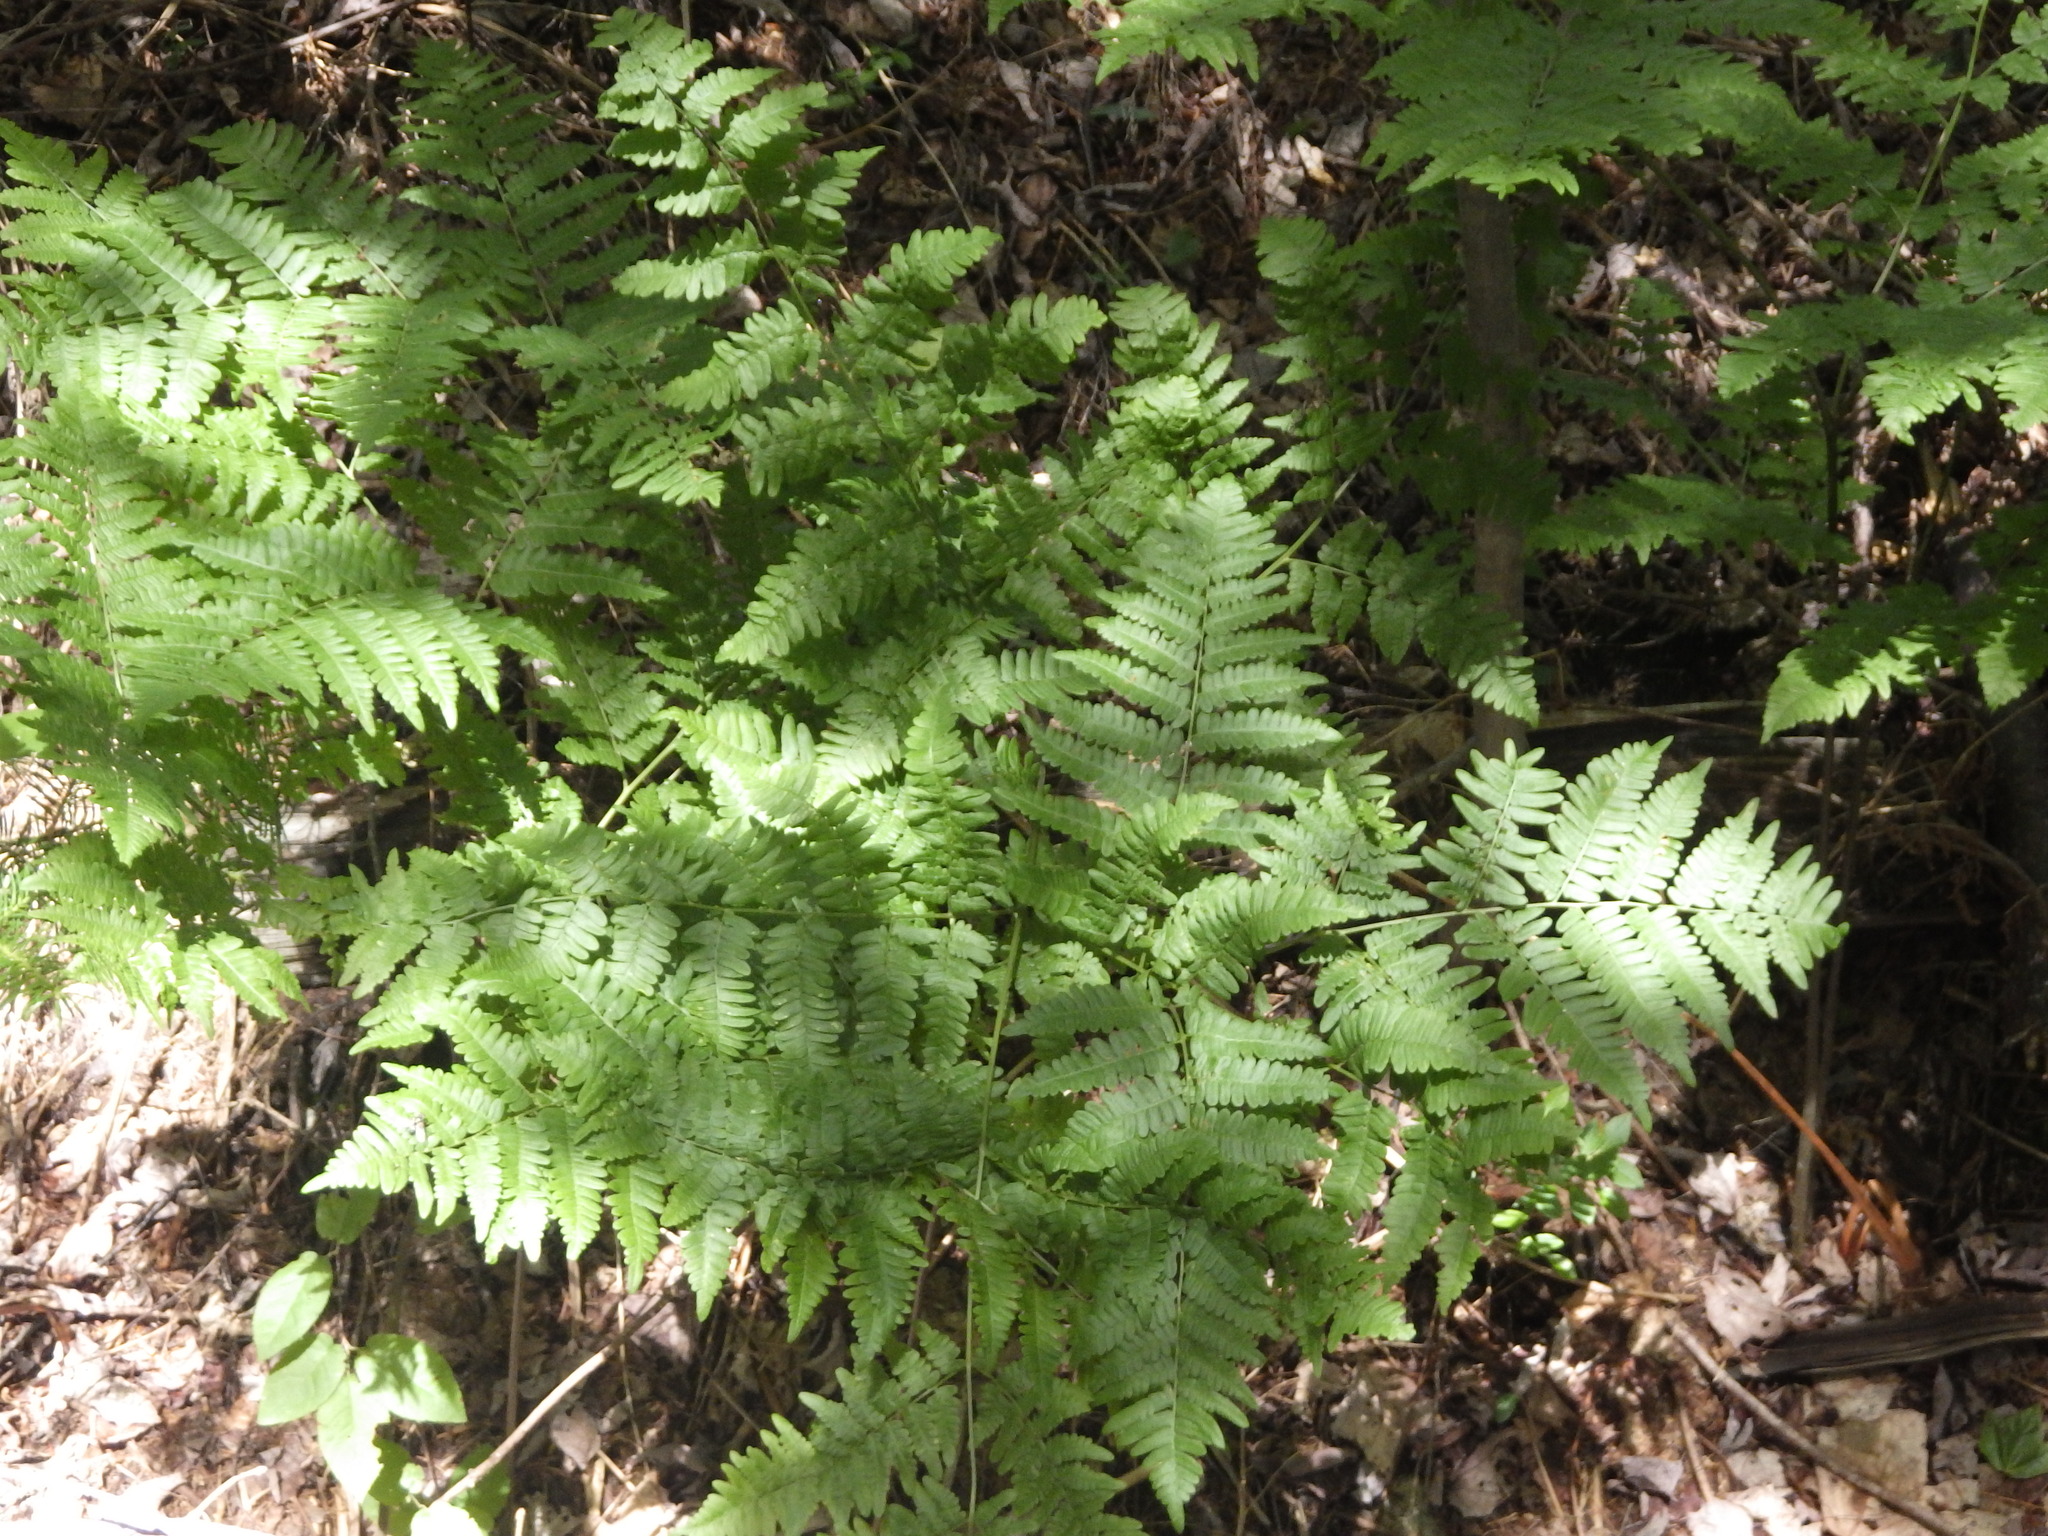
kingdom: Plantae
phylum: Tracheophyta
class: Polypodiopsida
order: Polypodiales
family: Dennstaedtiaceae
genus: Pteridium
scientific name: Pteridium aquilinum
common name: Bracken
